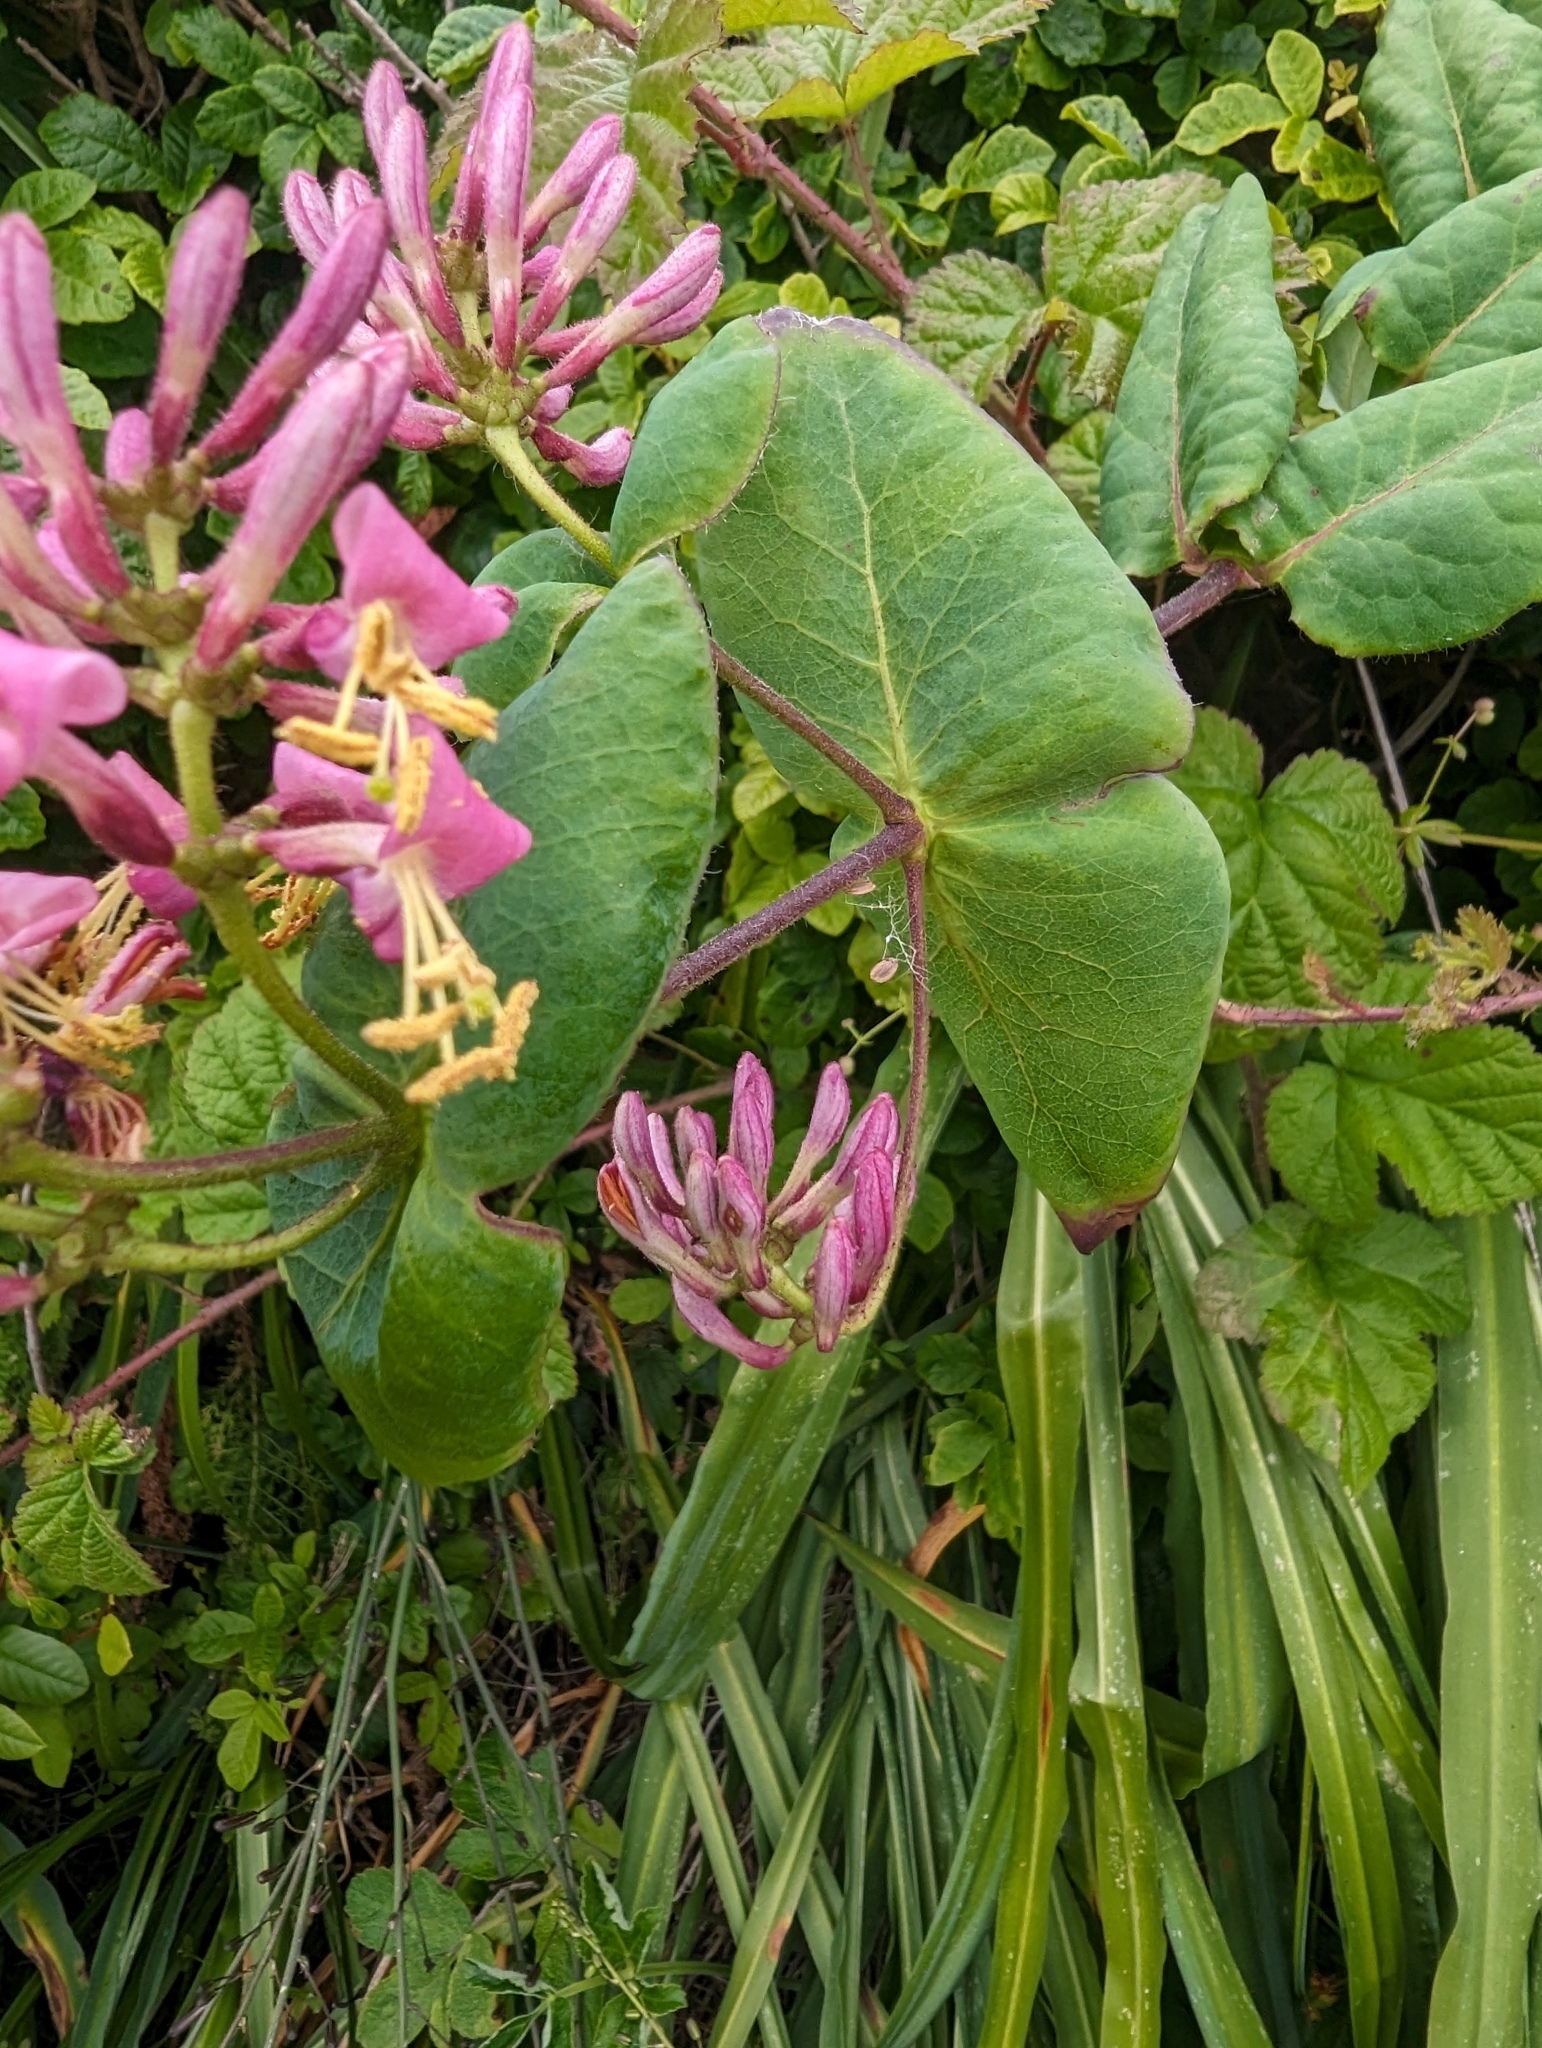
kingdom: Plantae
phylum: Tracheophyta
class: Magnoliopsida
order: Dipsacales
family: Caprifoliaceae
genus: Lonicera
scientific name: Lonicera hispidula
